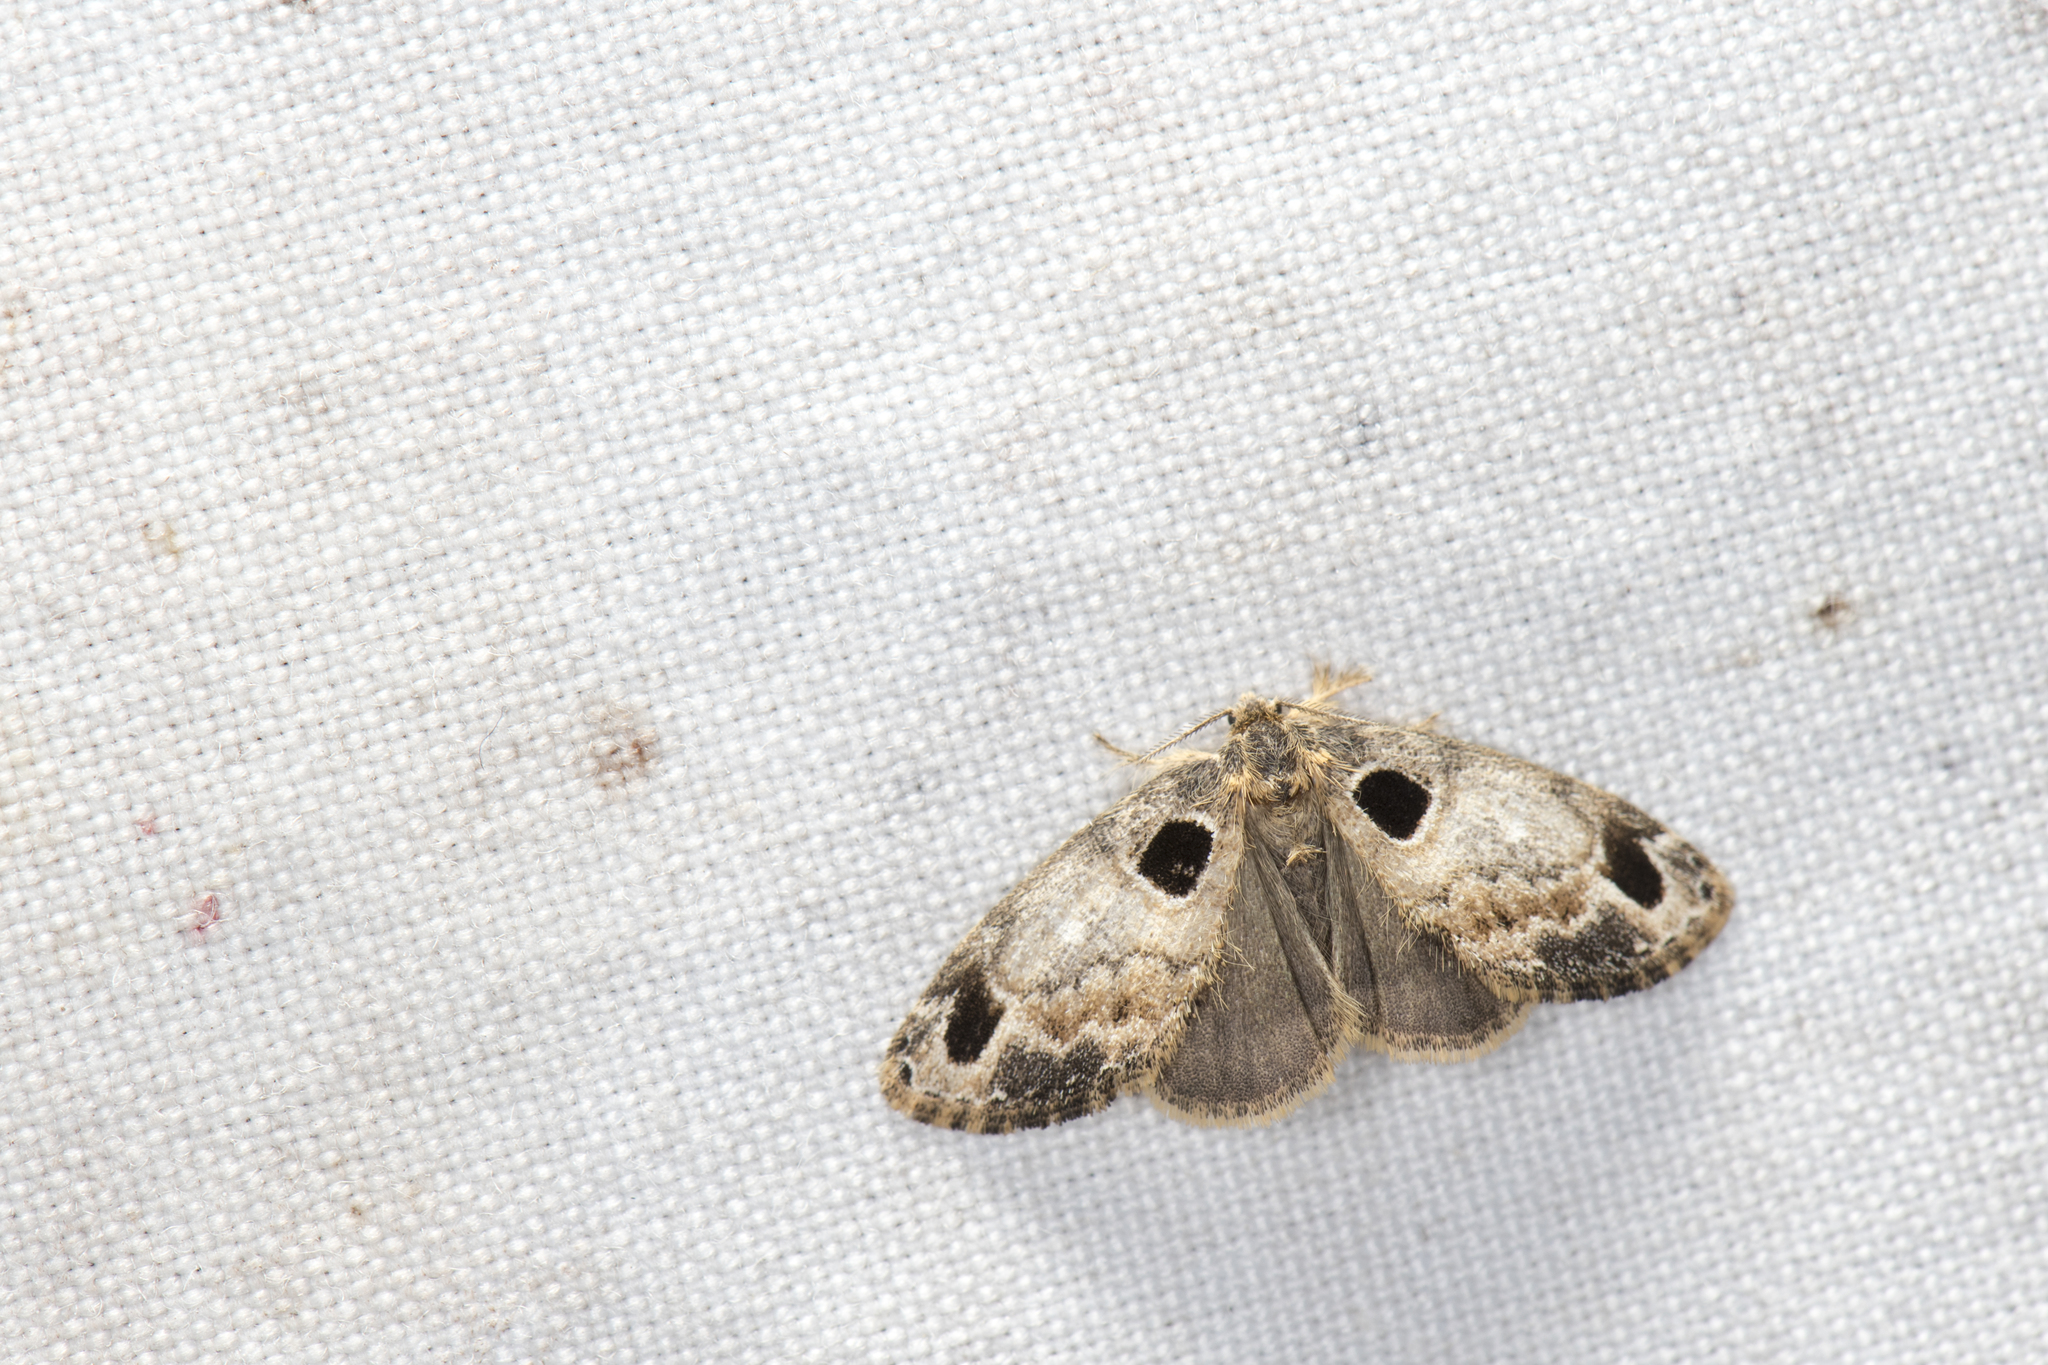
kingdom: Animalia
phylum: Arthropoda
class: Insecta
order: Lepidoptera
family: Erebidae
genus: Medama
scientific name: Medama diplaga
